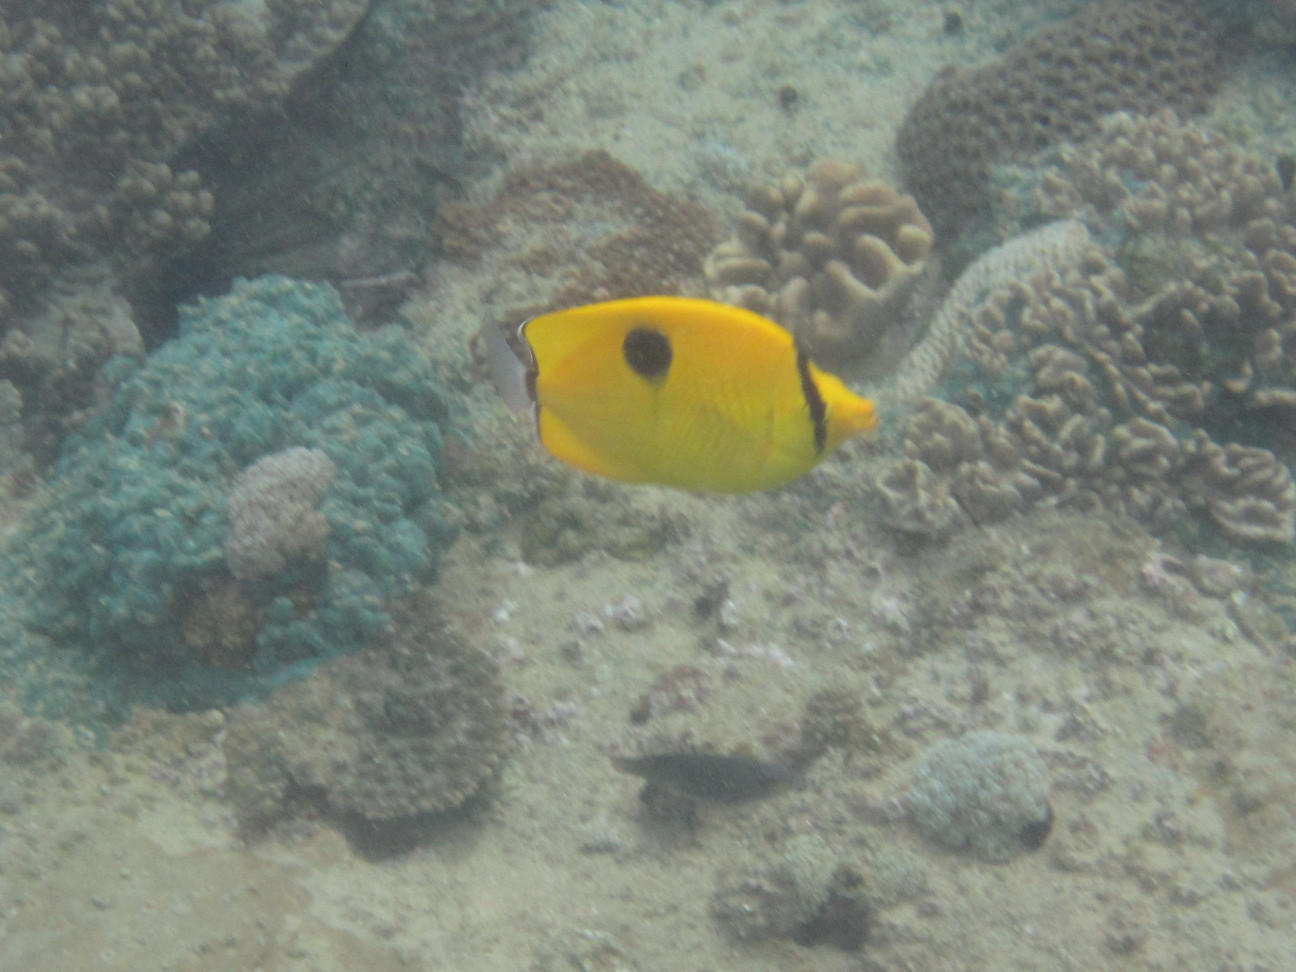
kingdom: Animalia
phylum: Chordata
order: Perciformes
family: Chaetodontidae
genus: Chaetodon
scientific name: Chaetodon interruptus
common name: Yellow teardrop butterflyfish
